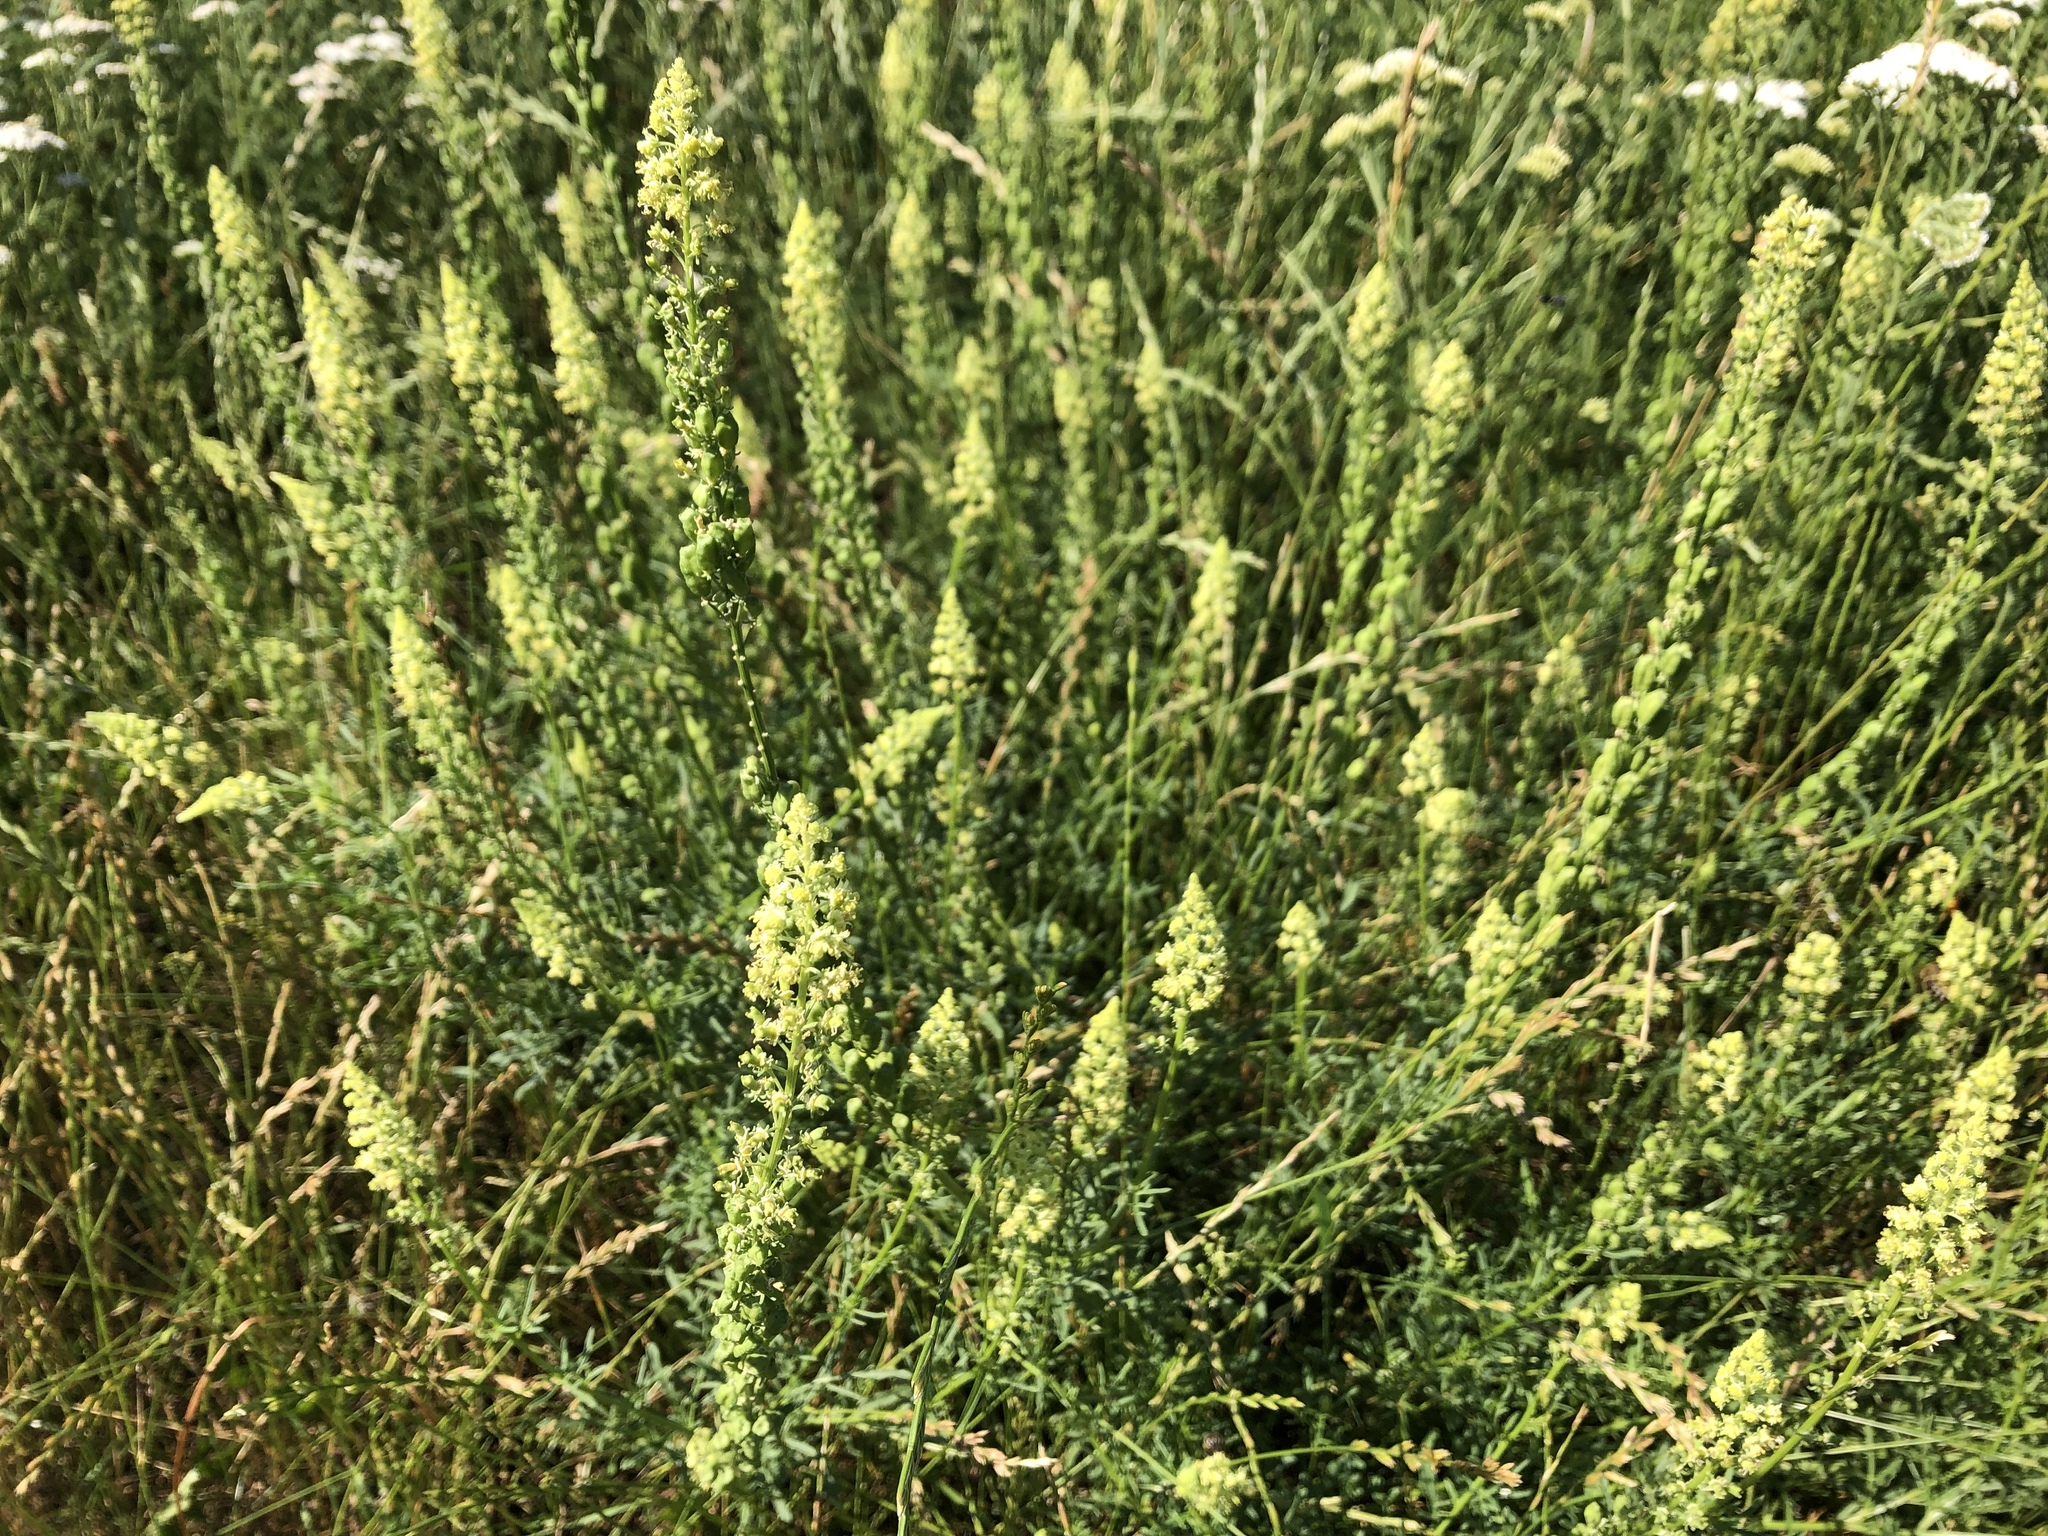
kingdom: Plantae
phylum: Tracheophyta
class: Magnoliopsida
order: Brassicales
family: Resedaceae
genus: Reseda
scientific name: Reseda lutea
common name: Wild mignonette
